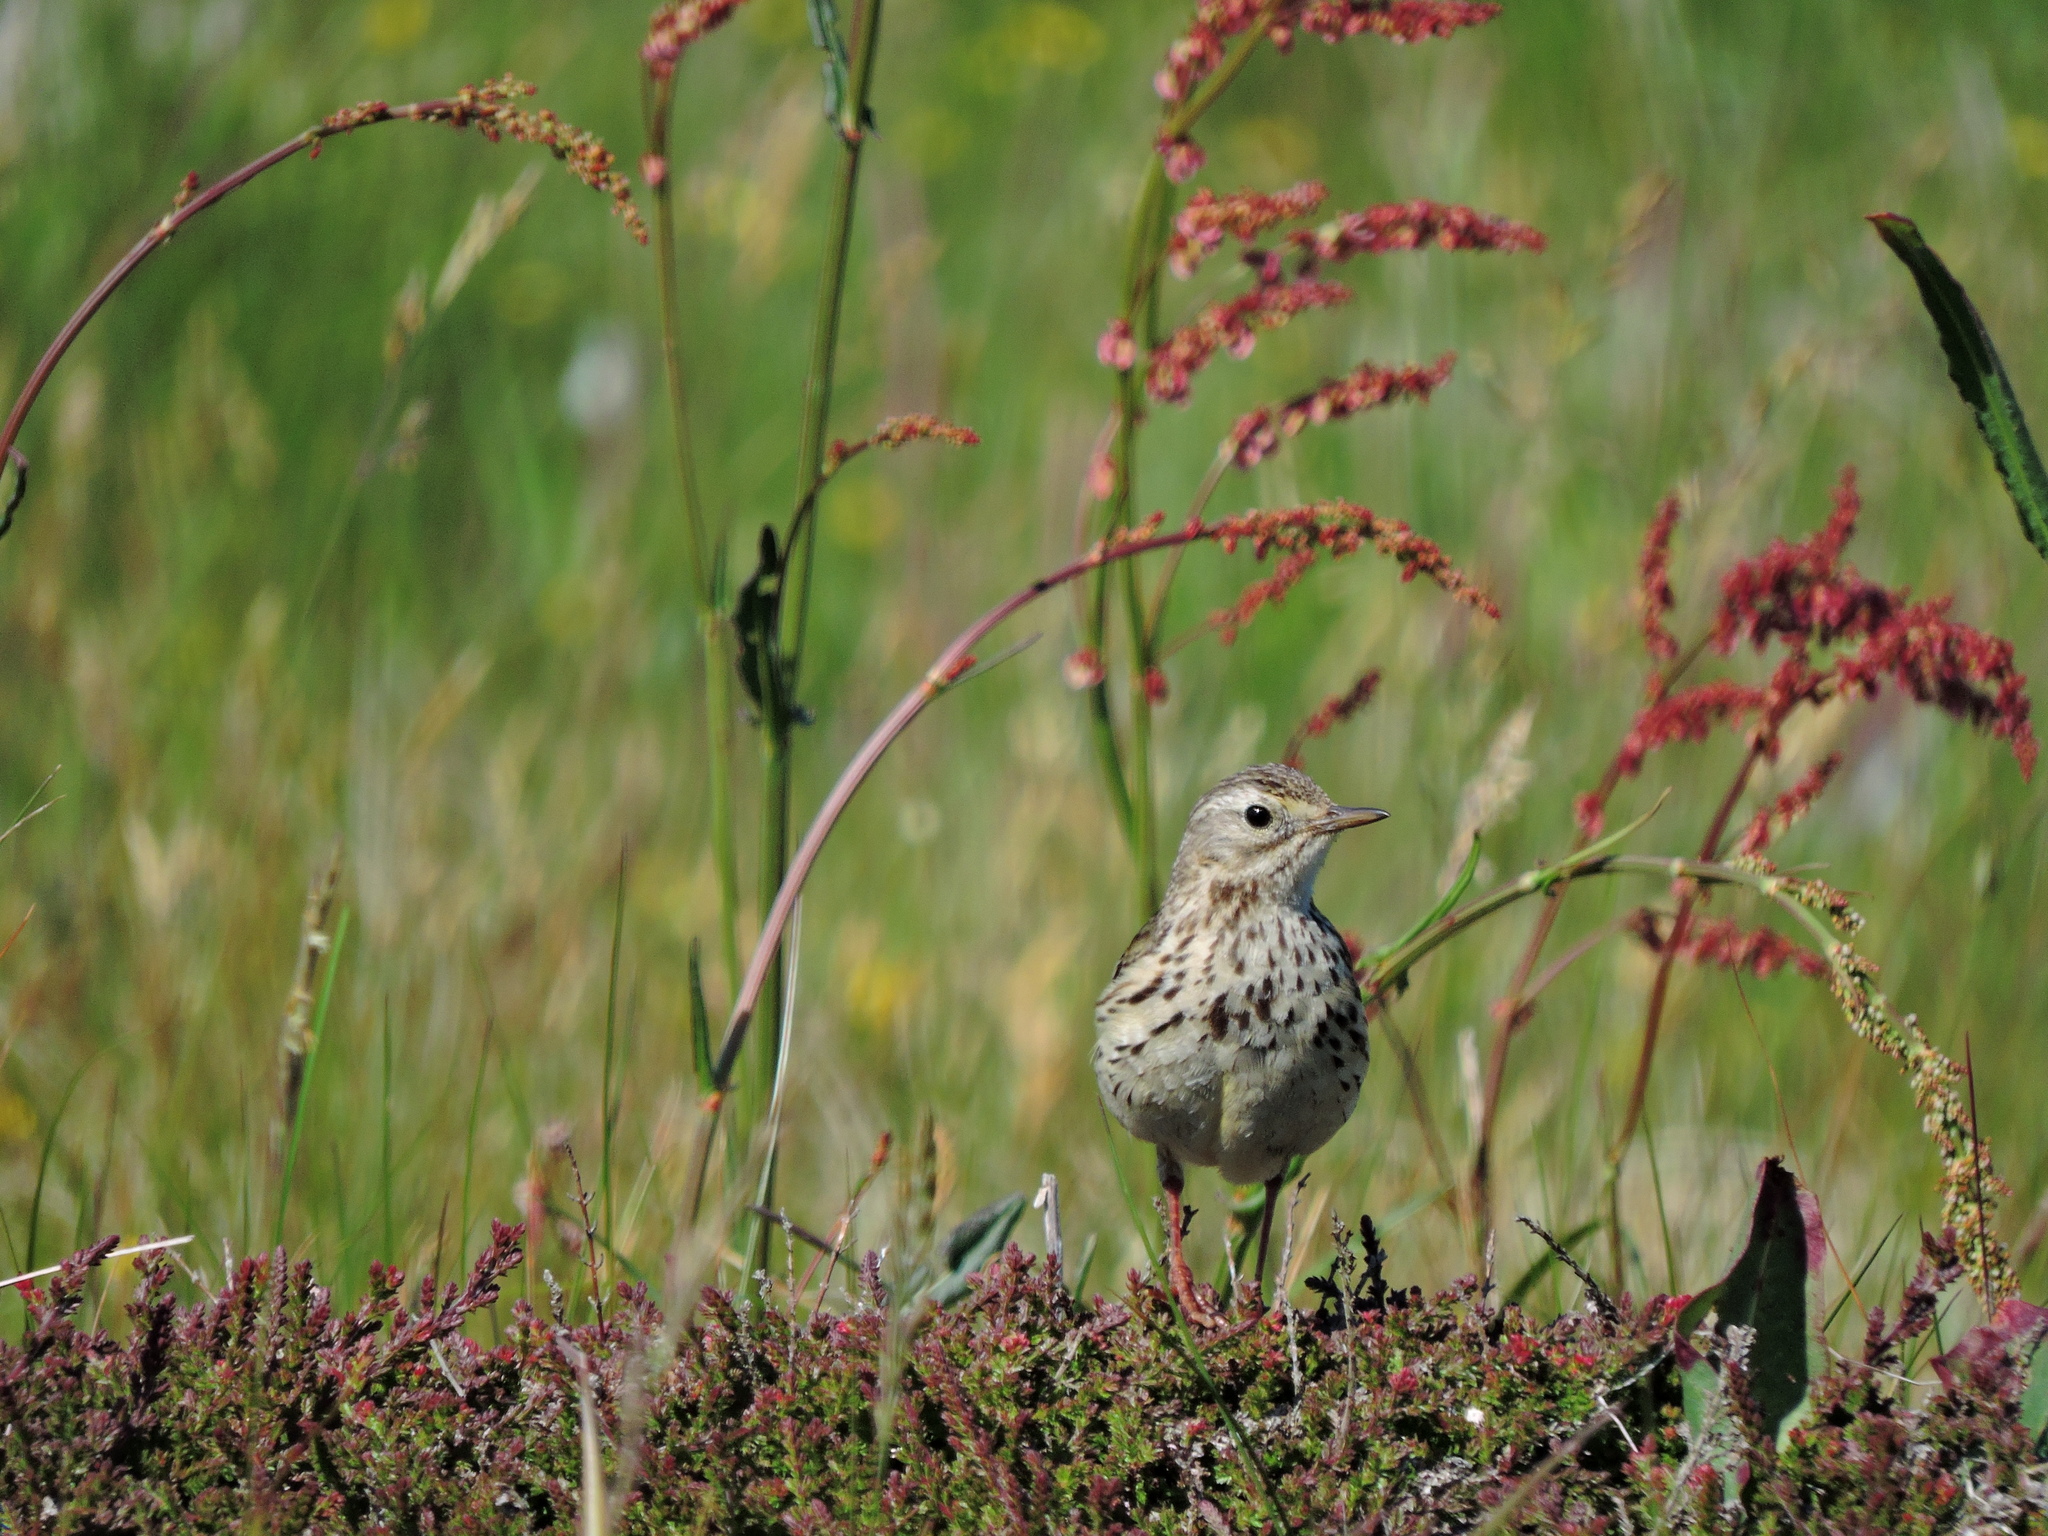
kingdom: Animalia
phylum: Chordata
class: Aves
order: Passeriformes
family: Motacillidae
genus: Anthus
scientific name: Anthus pratensis
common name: Meadow pipit
